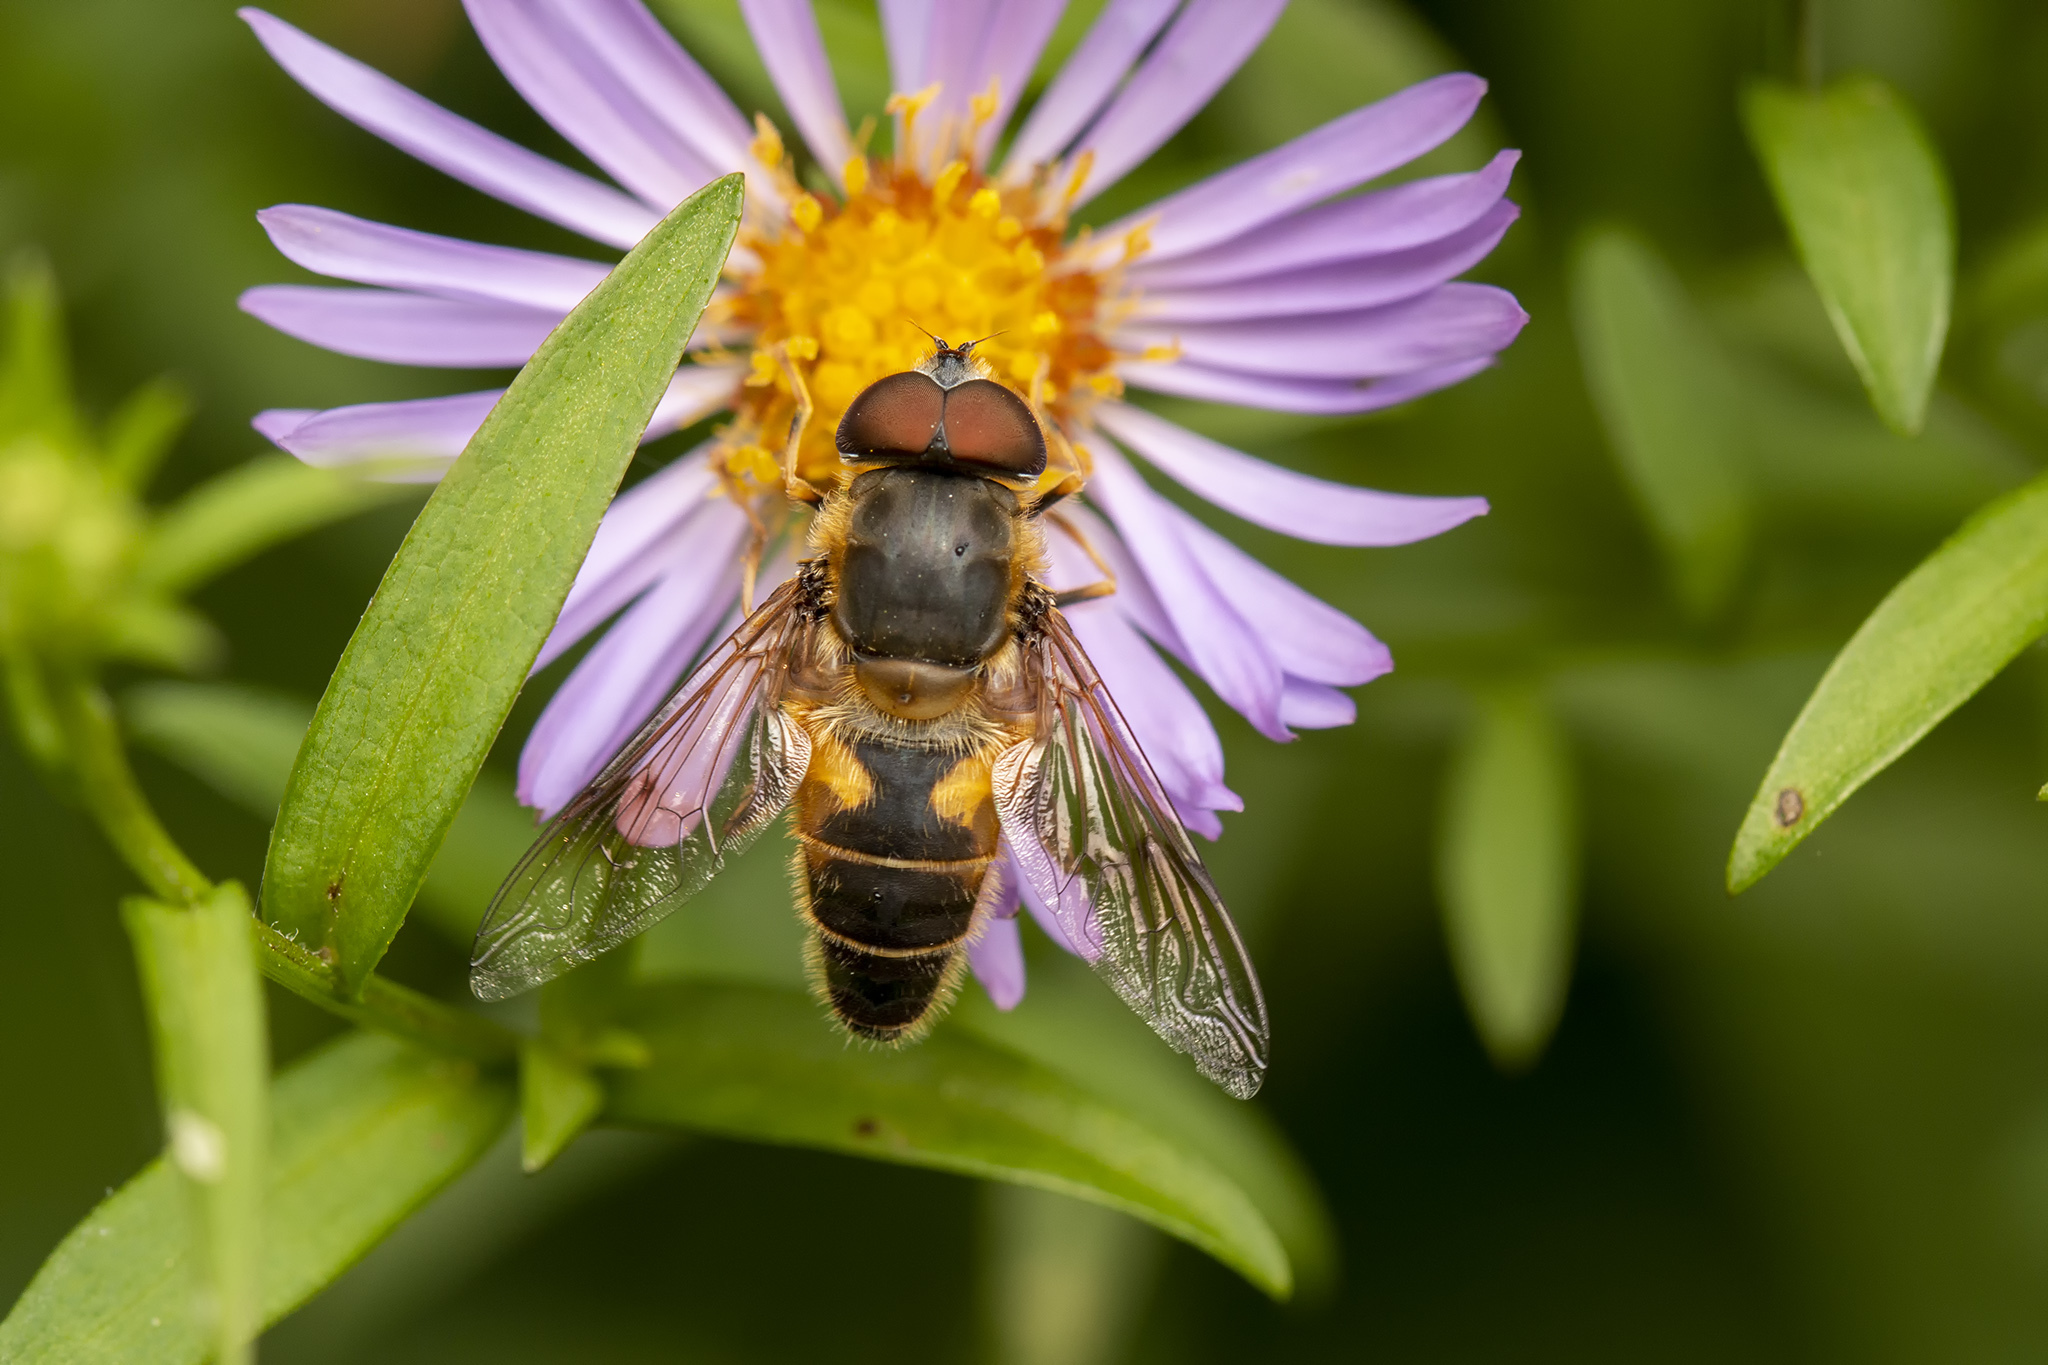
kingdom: Animalia
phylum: Arthropoda
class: Insecta
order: Diptera
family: Syrphidae
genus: Eristalis
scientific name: Eristalis pertinax
